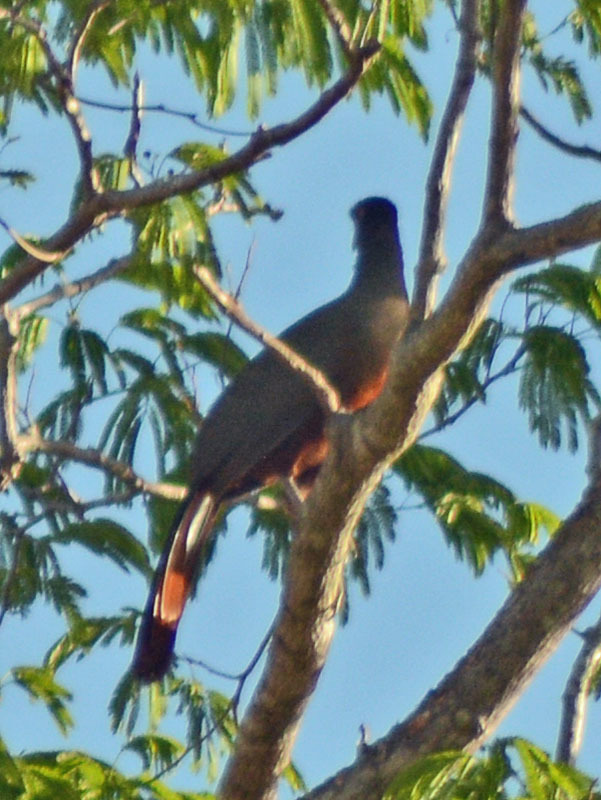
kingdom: Animalia
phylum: Chordata
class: Aves
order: Galliformes
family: Cracidae
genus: Ortalis
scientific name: Ortalis wagleri
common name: Rufous-bellied chachalaca
